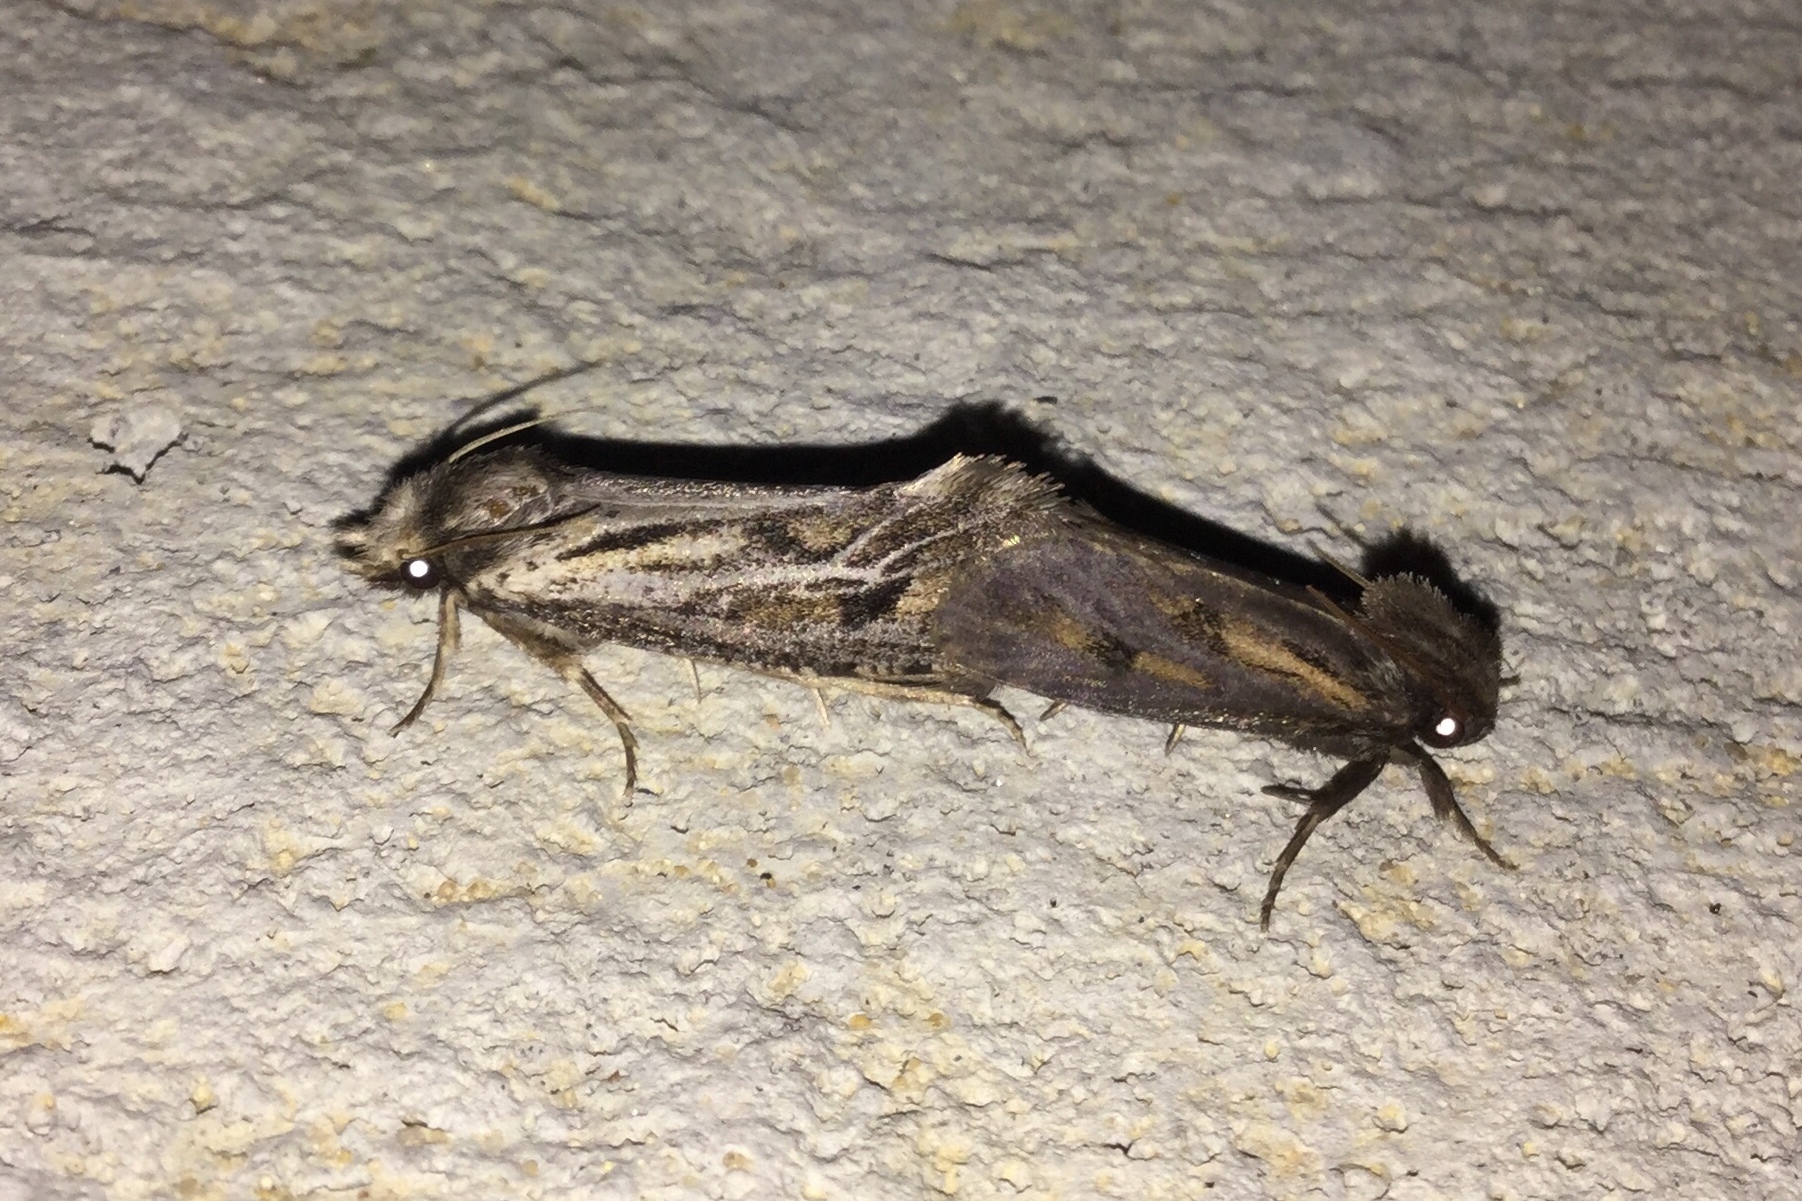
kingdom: Animalia
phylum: Arthropoda
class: Insecta
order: Lepidoptera
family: Tineidae
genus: Acrolophus
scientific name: Acrolophus popeanella
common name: Clemens' grass tubeworm moth
